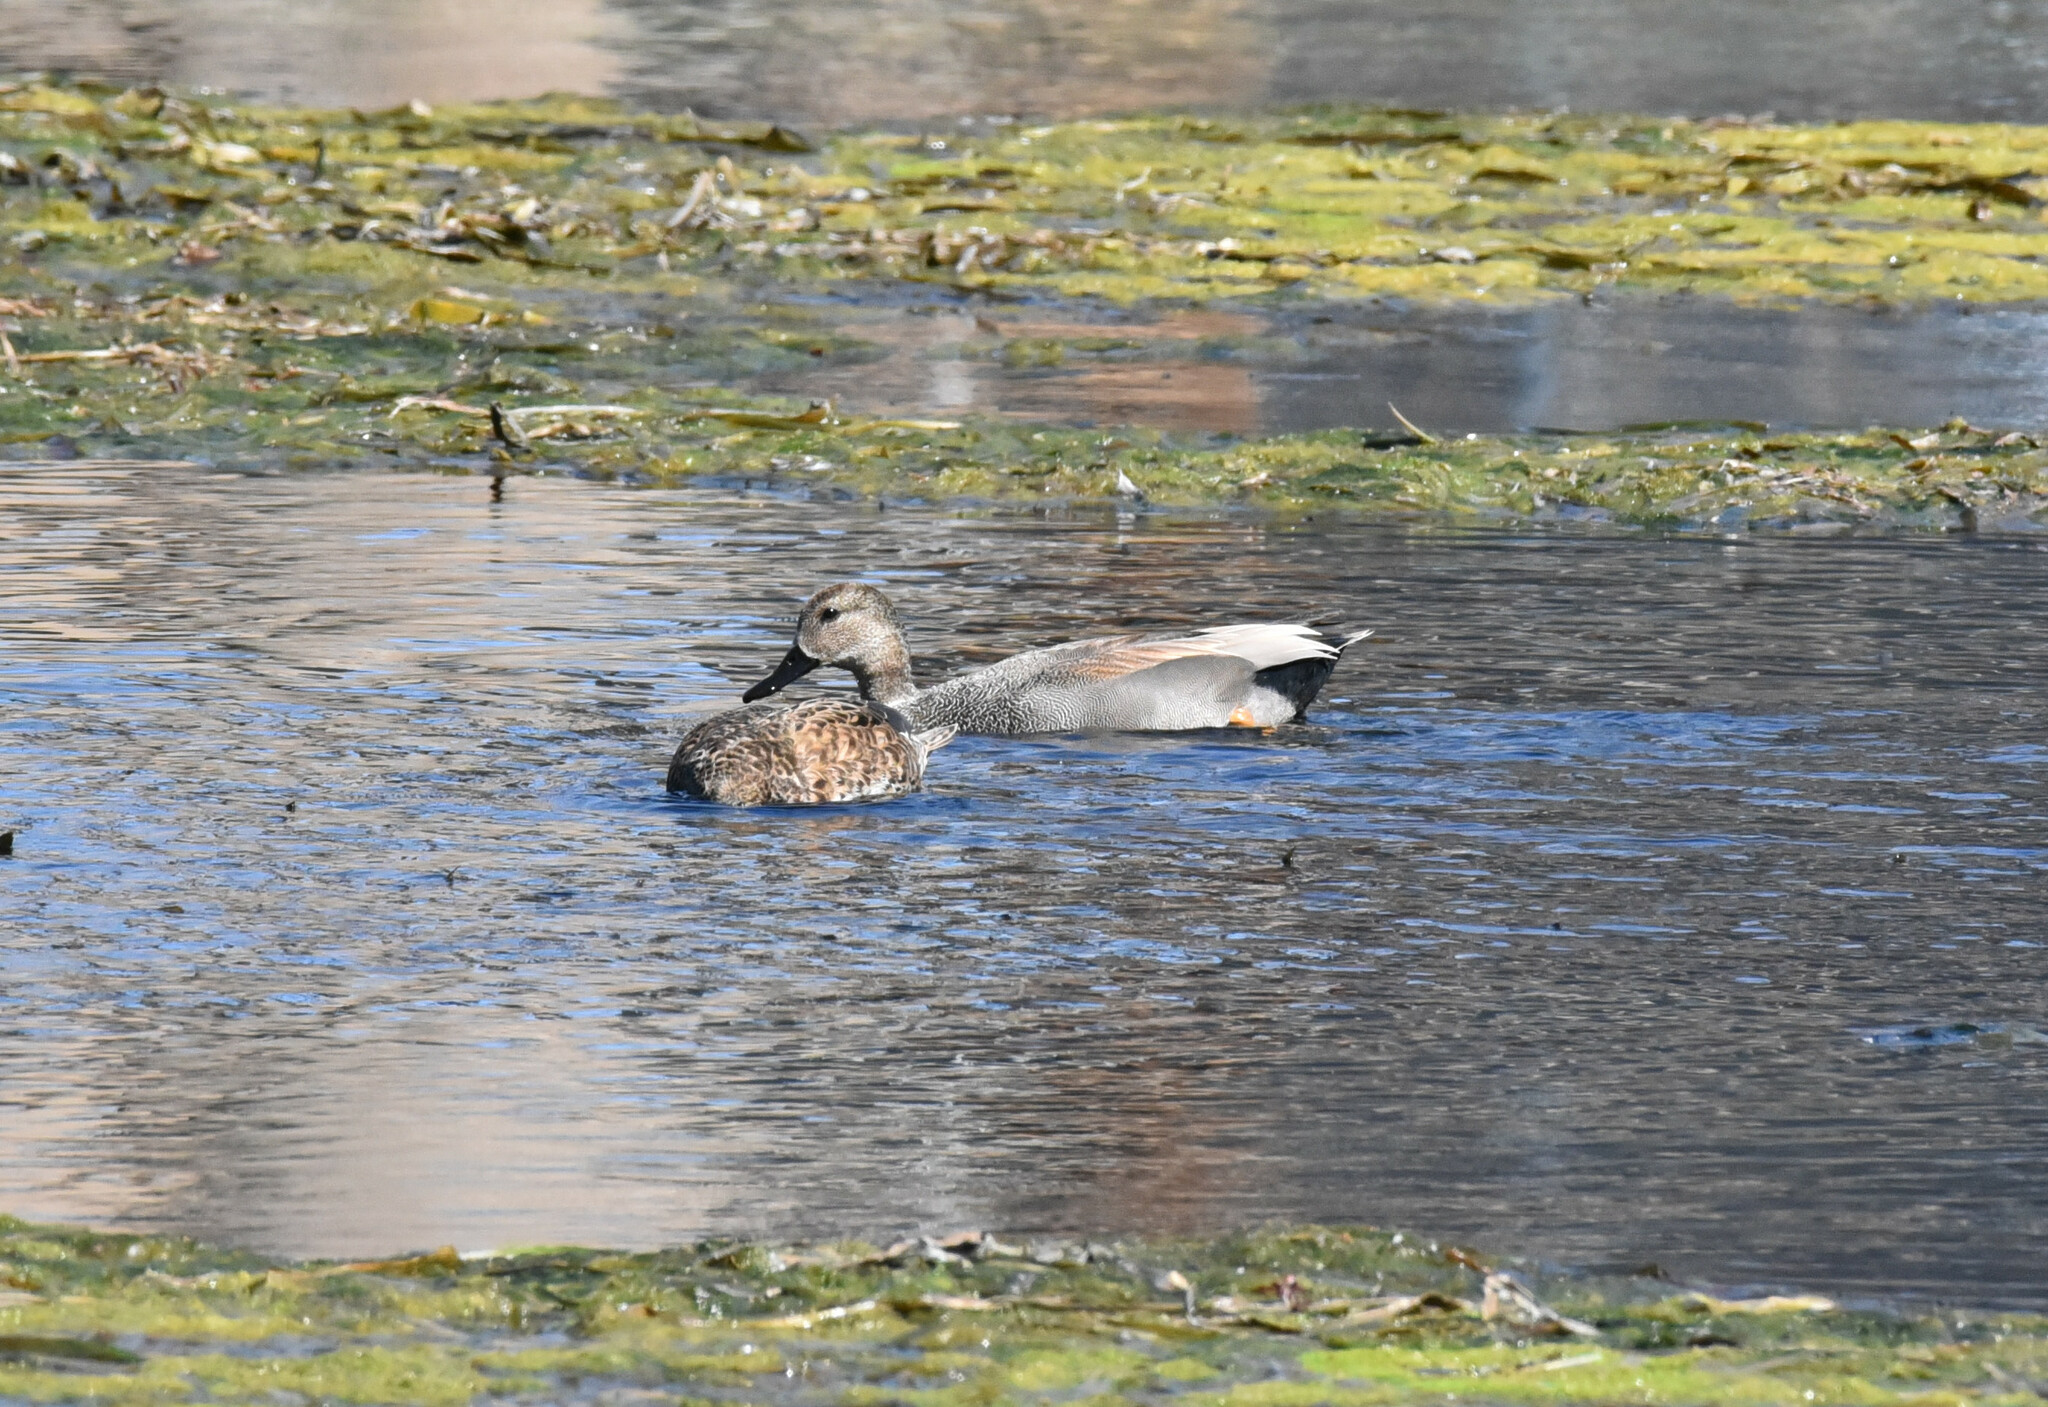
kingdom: Animalia
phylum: Chordata
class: Aves
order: Anseriformes
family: Anatidae
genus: Mareca
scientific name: Mareca strepera
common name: Gadwall
